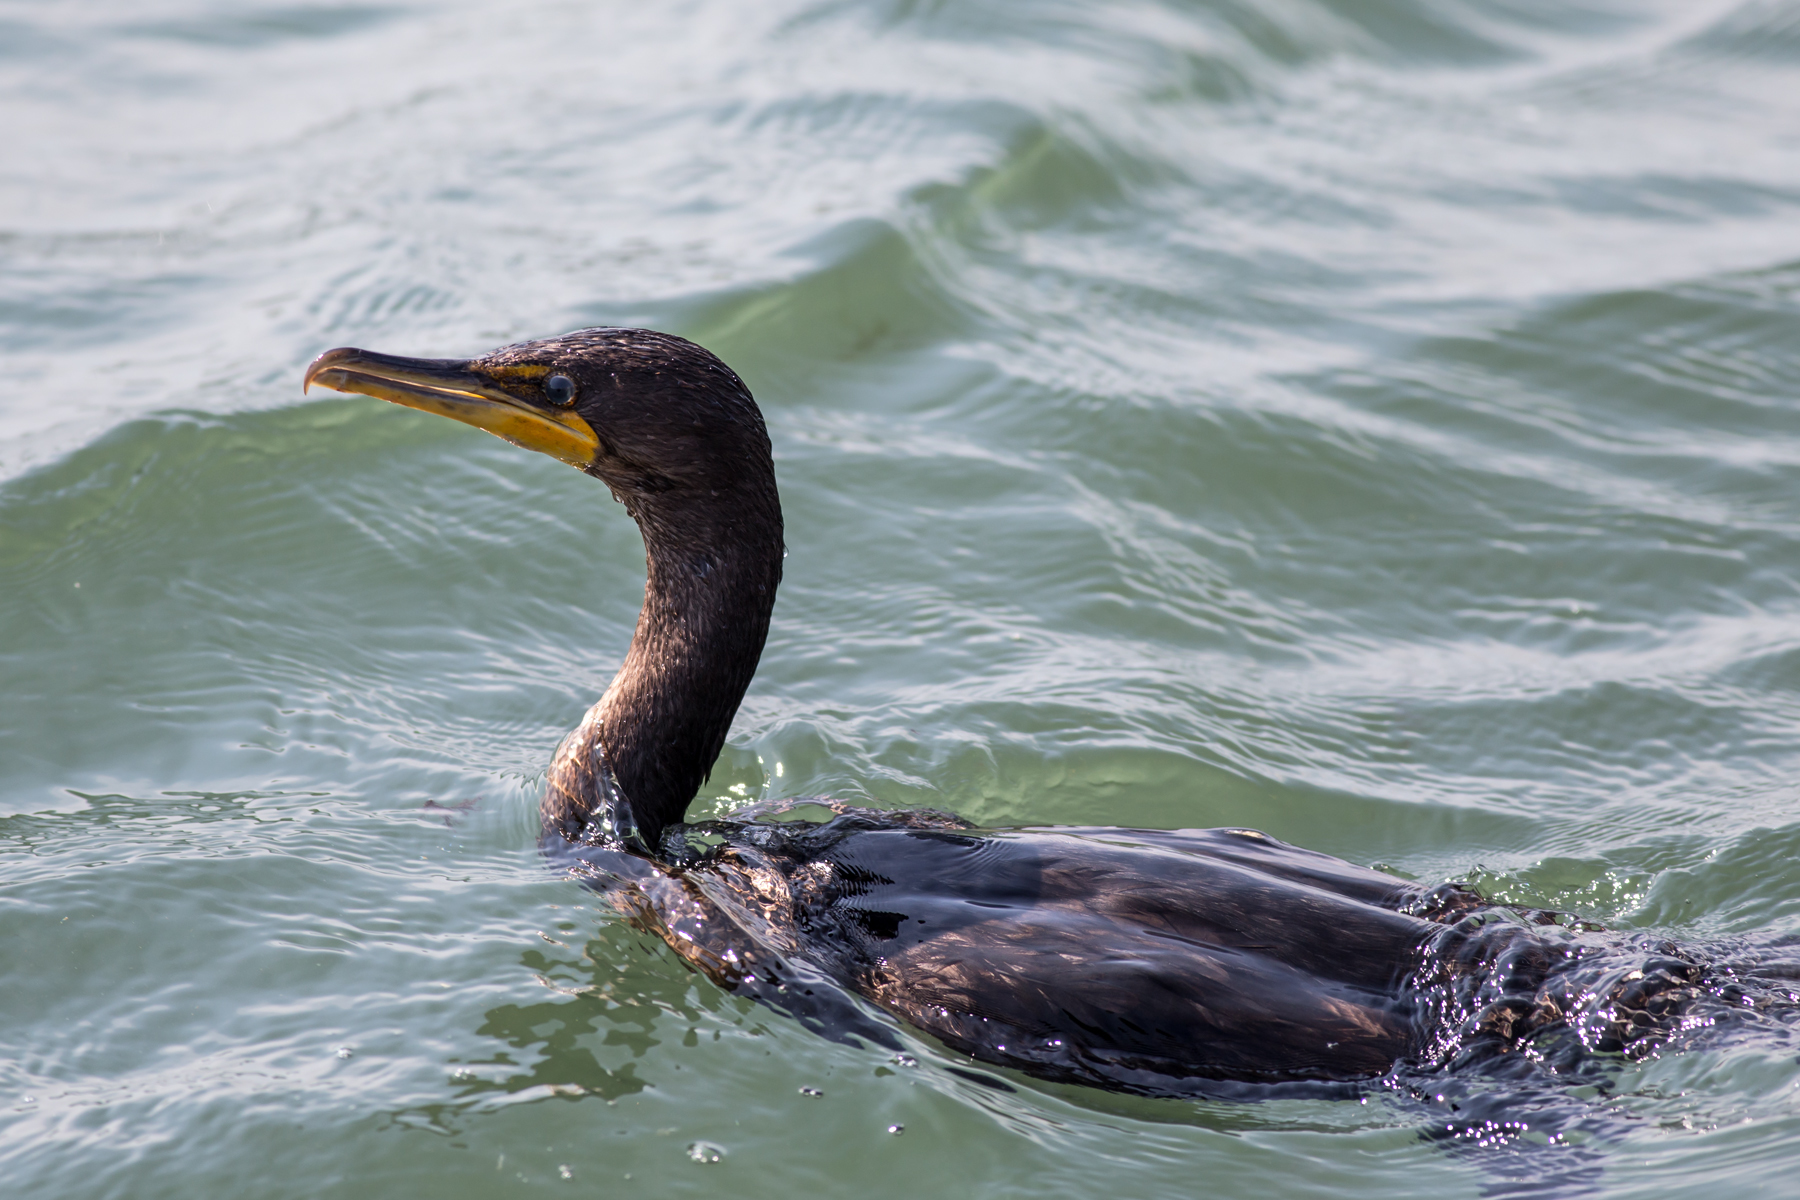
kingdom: Animalia
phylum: Chordata
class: Aves
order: Suliformes
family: Phalacrocoracidae
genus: Phalacrocorax
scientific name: Phalacrocorax auritus
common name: Double-crested cormorant
